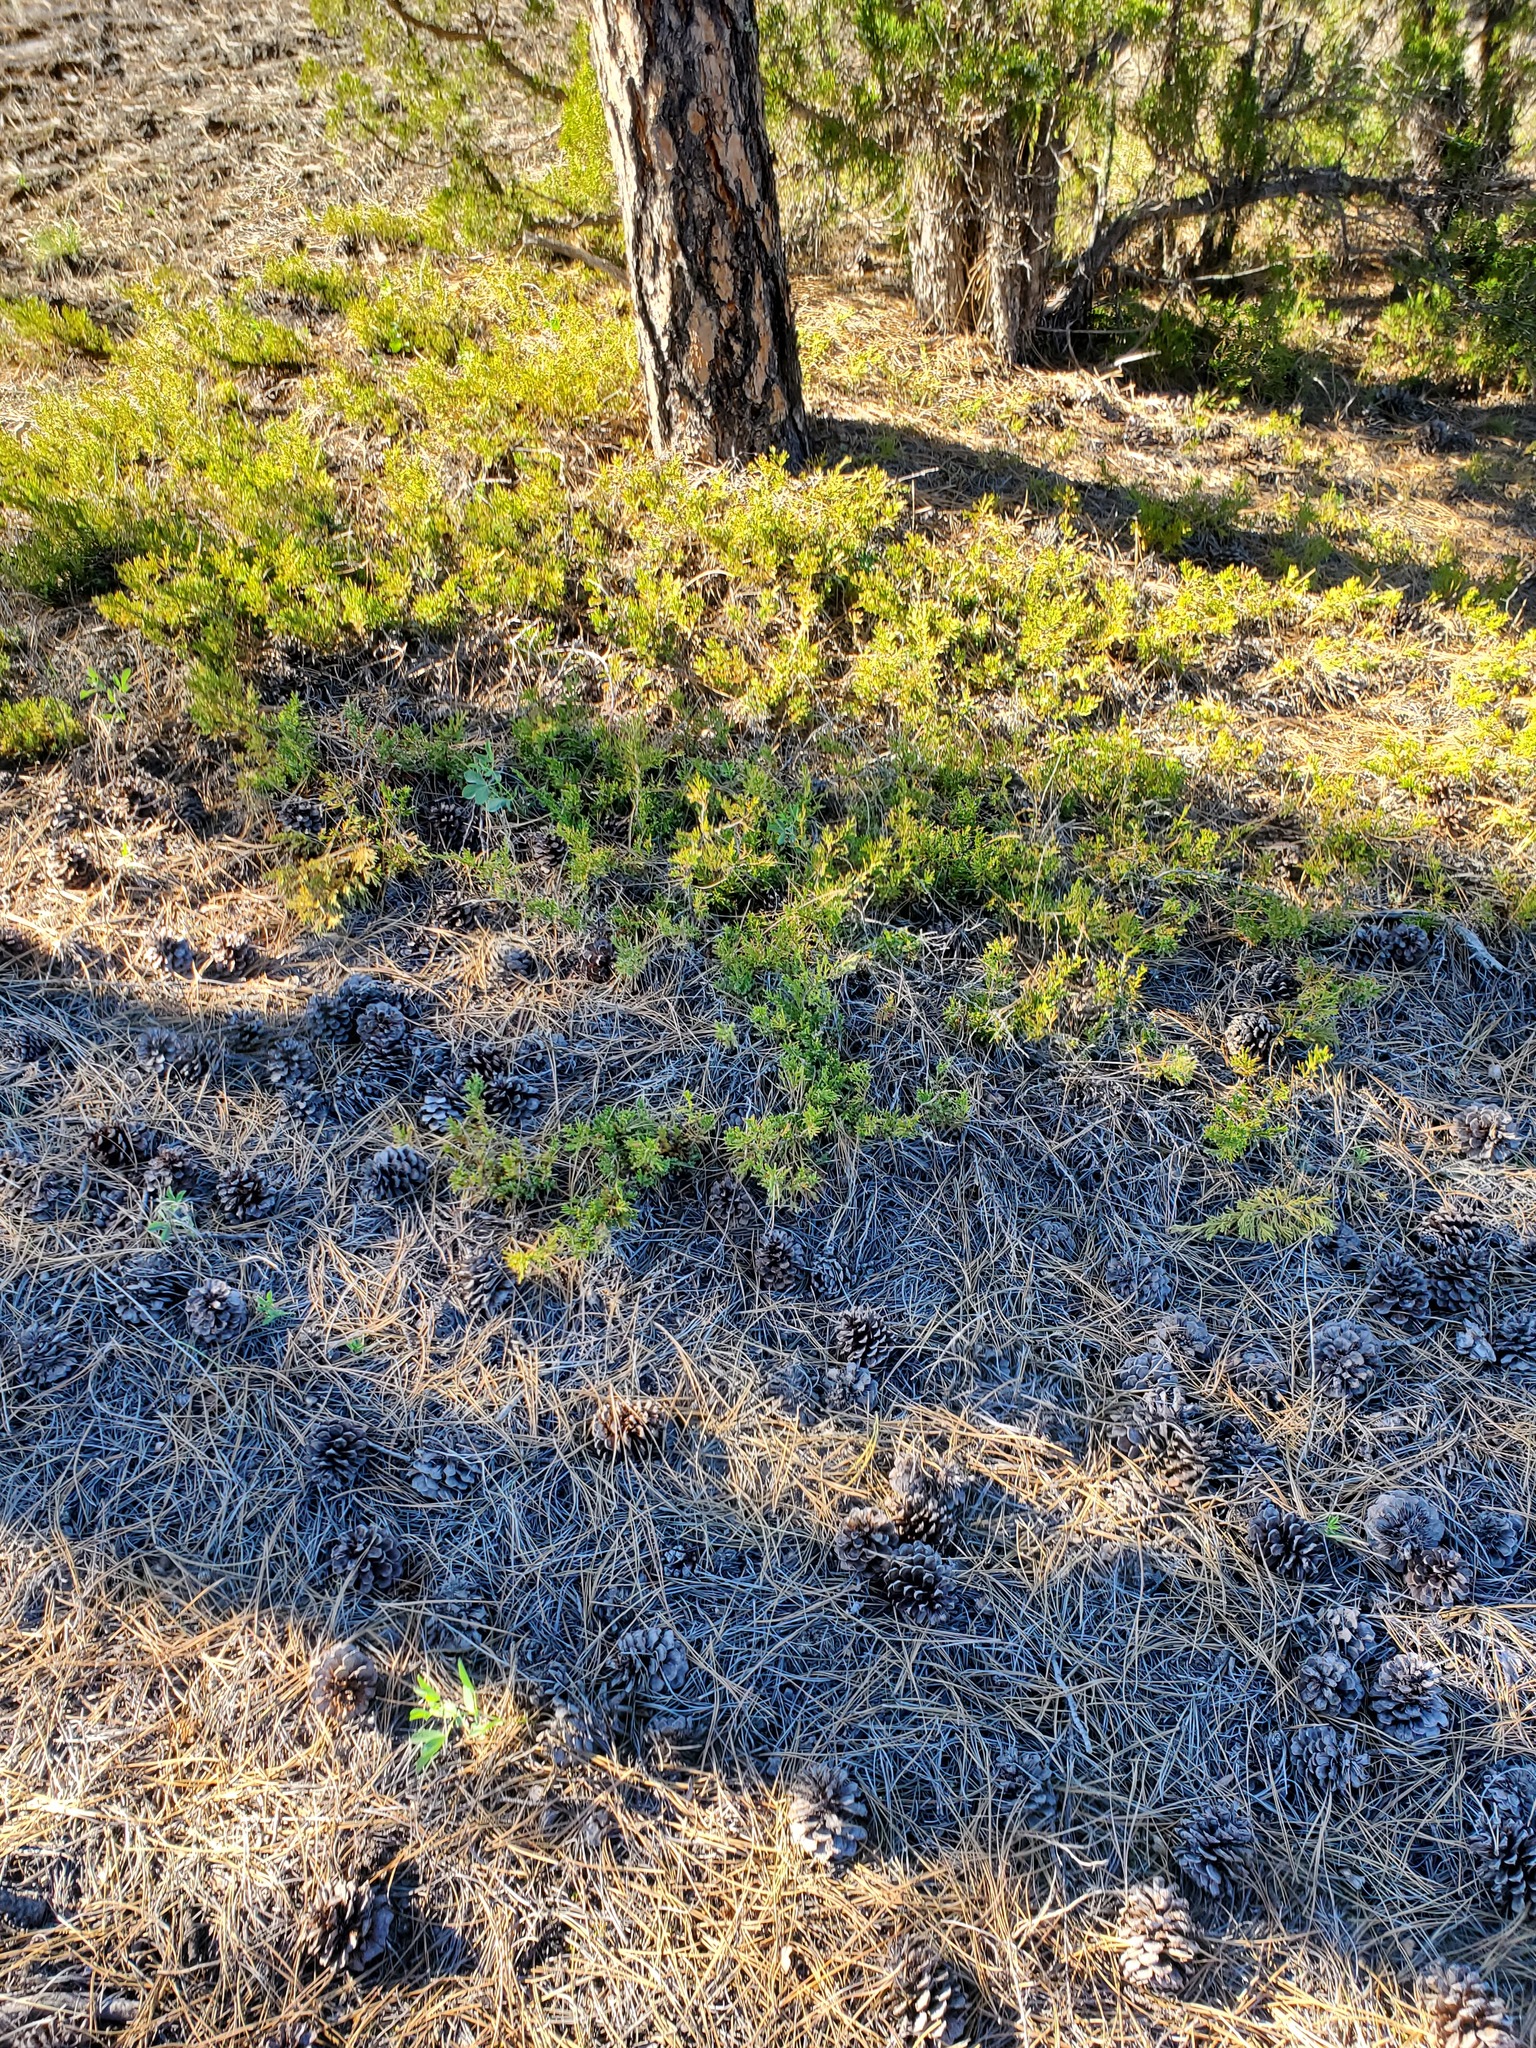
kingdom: Plantae
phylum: Tracheophyta
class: Pinopsida
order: Pinales
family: Cupressaceae
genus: Juniperus
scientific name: Juniperus horizontalis
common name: Creeping juniper
